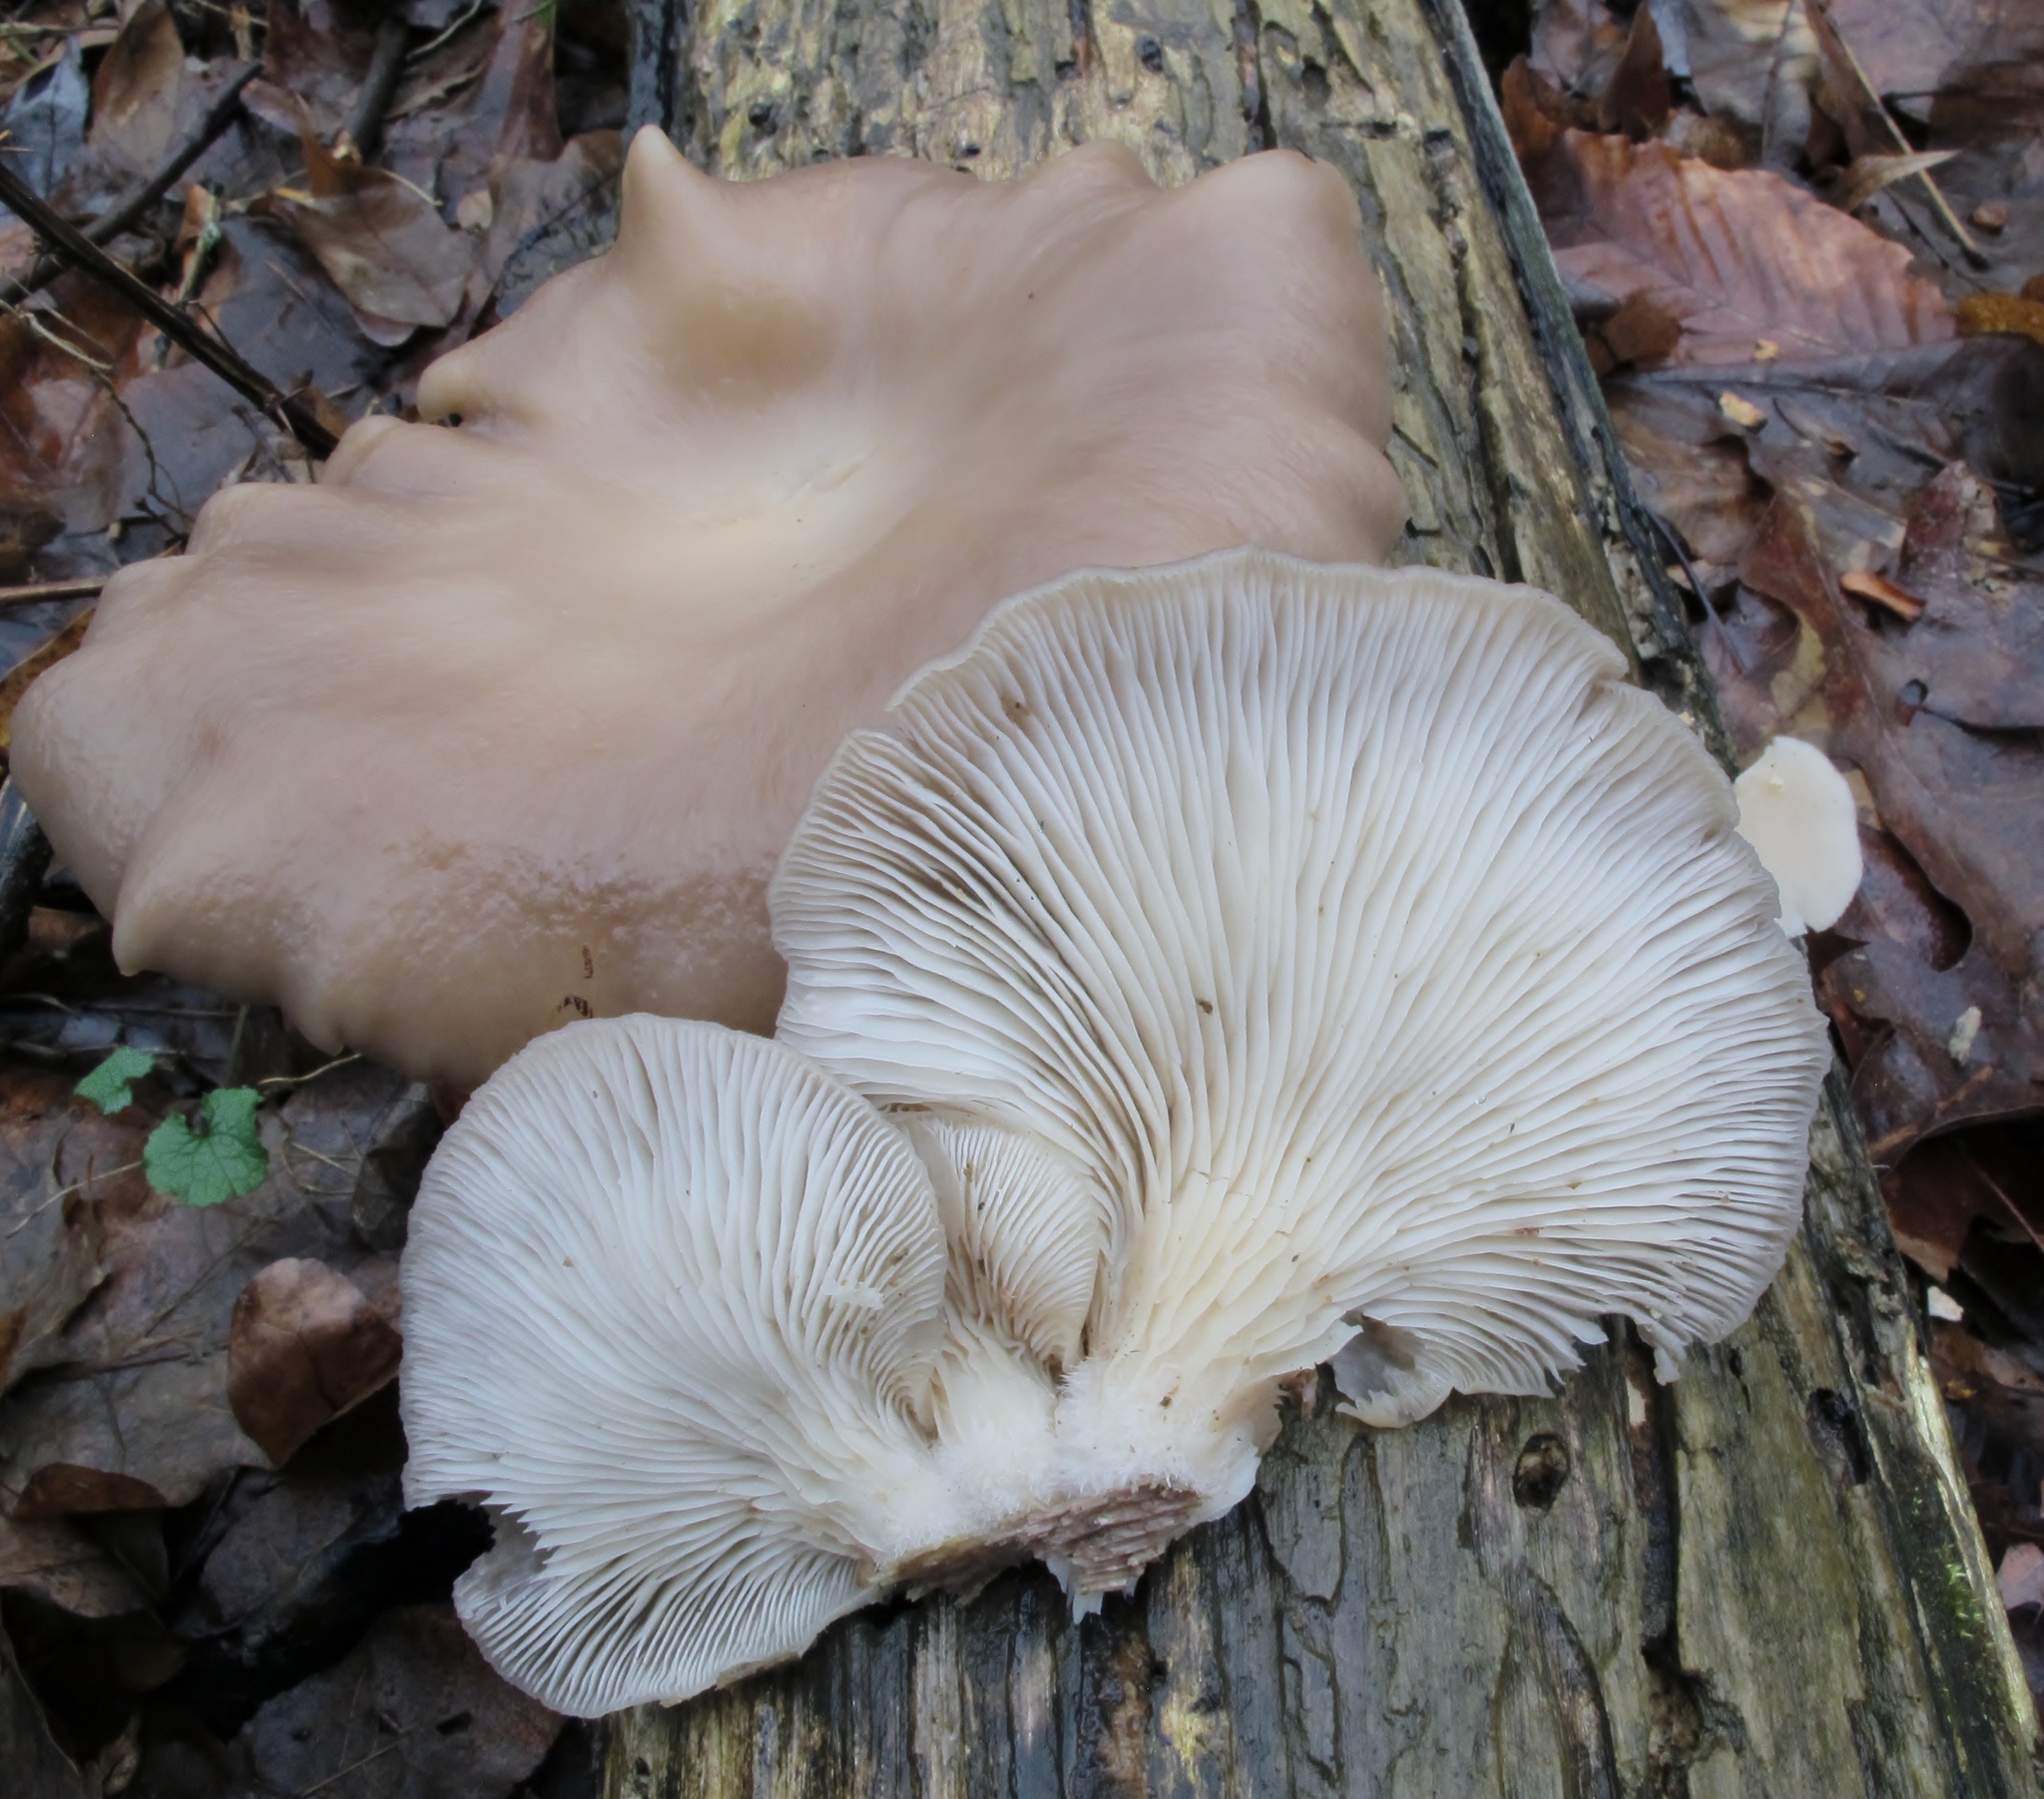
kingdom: Fungi
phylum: Basidiomycota
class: Agaricomycetes
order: Agaricales
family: Pleurotaceae
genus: Pleurotus
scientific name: Pleurotus ostreatus
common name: Oyster mushroom
